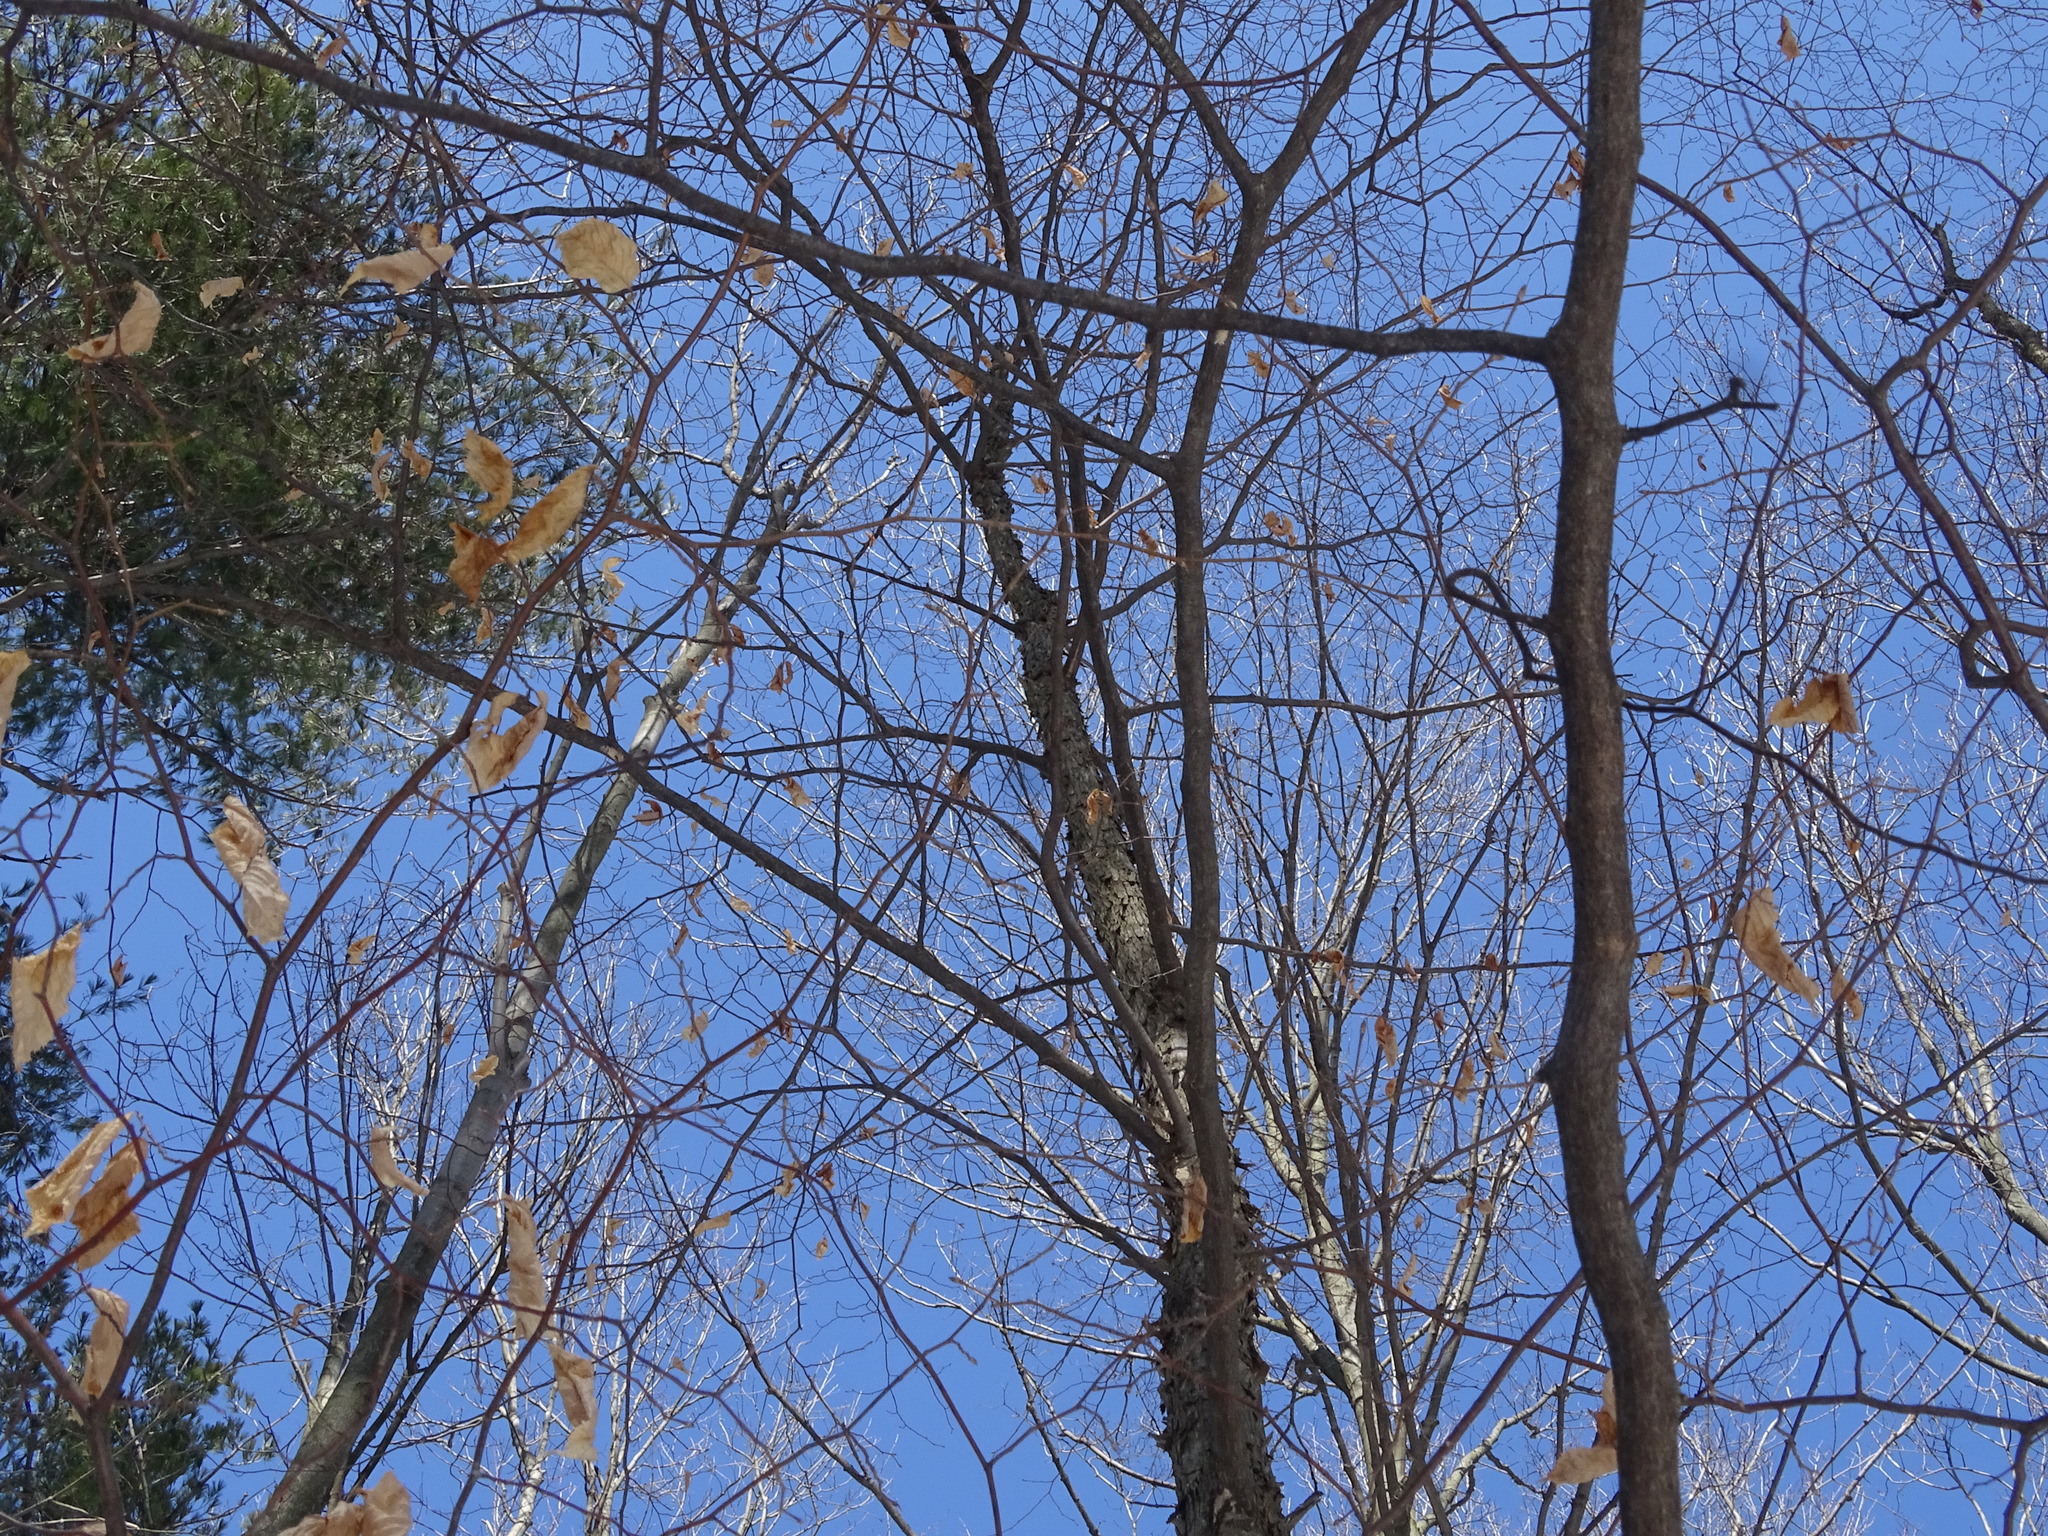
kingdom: Plantae
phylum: Tracheophyta
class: Magnoliopsida
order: Fagales
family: Betulaceae
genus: Ostrya
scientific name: Ostrya virginiana
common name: Ironwood
